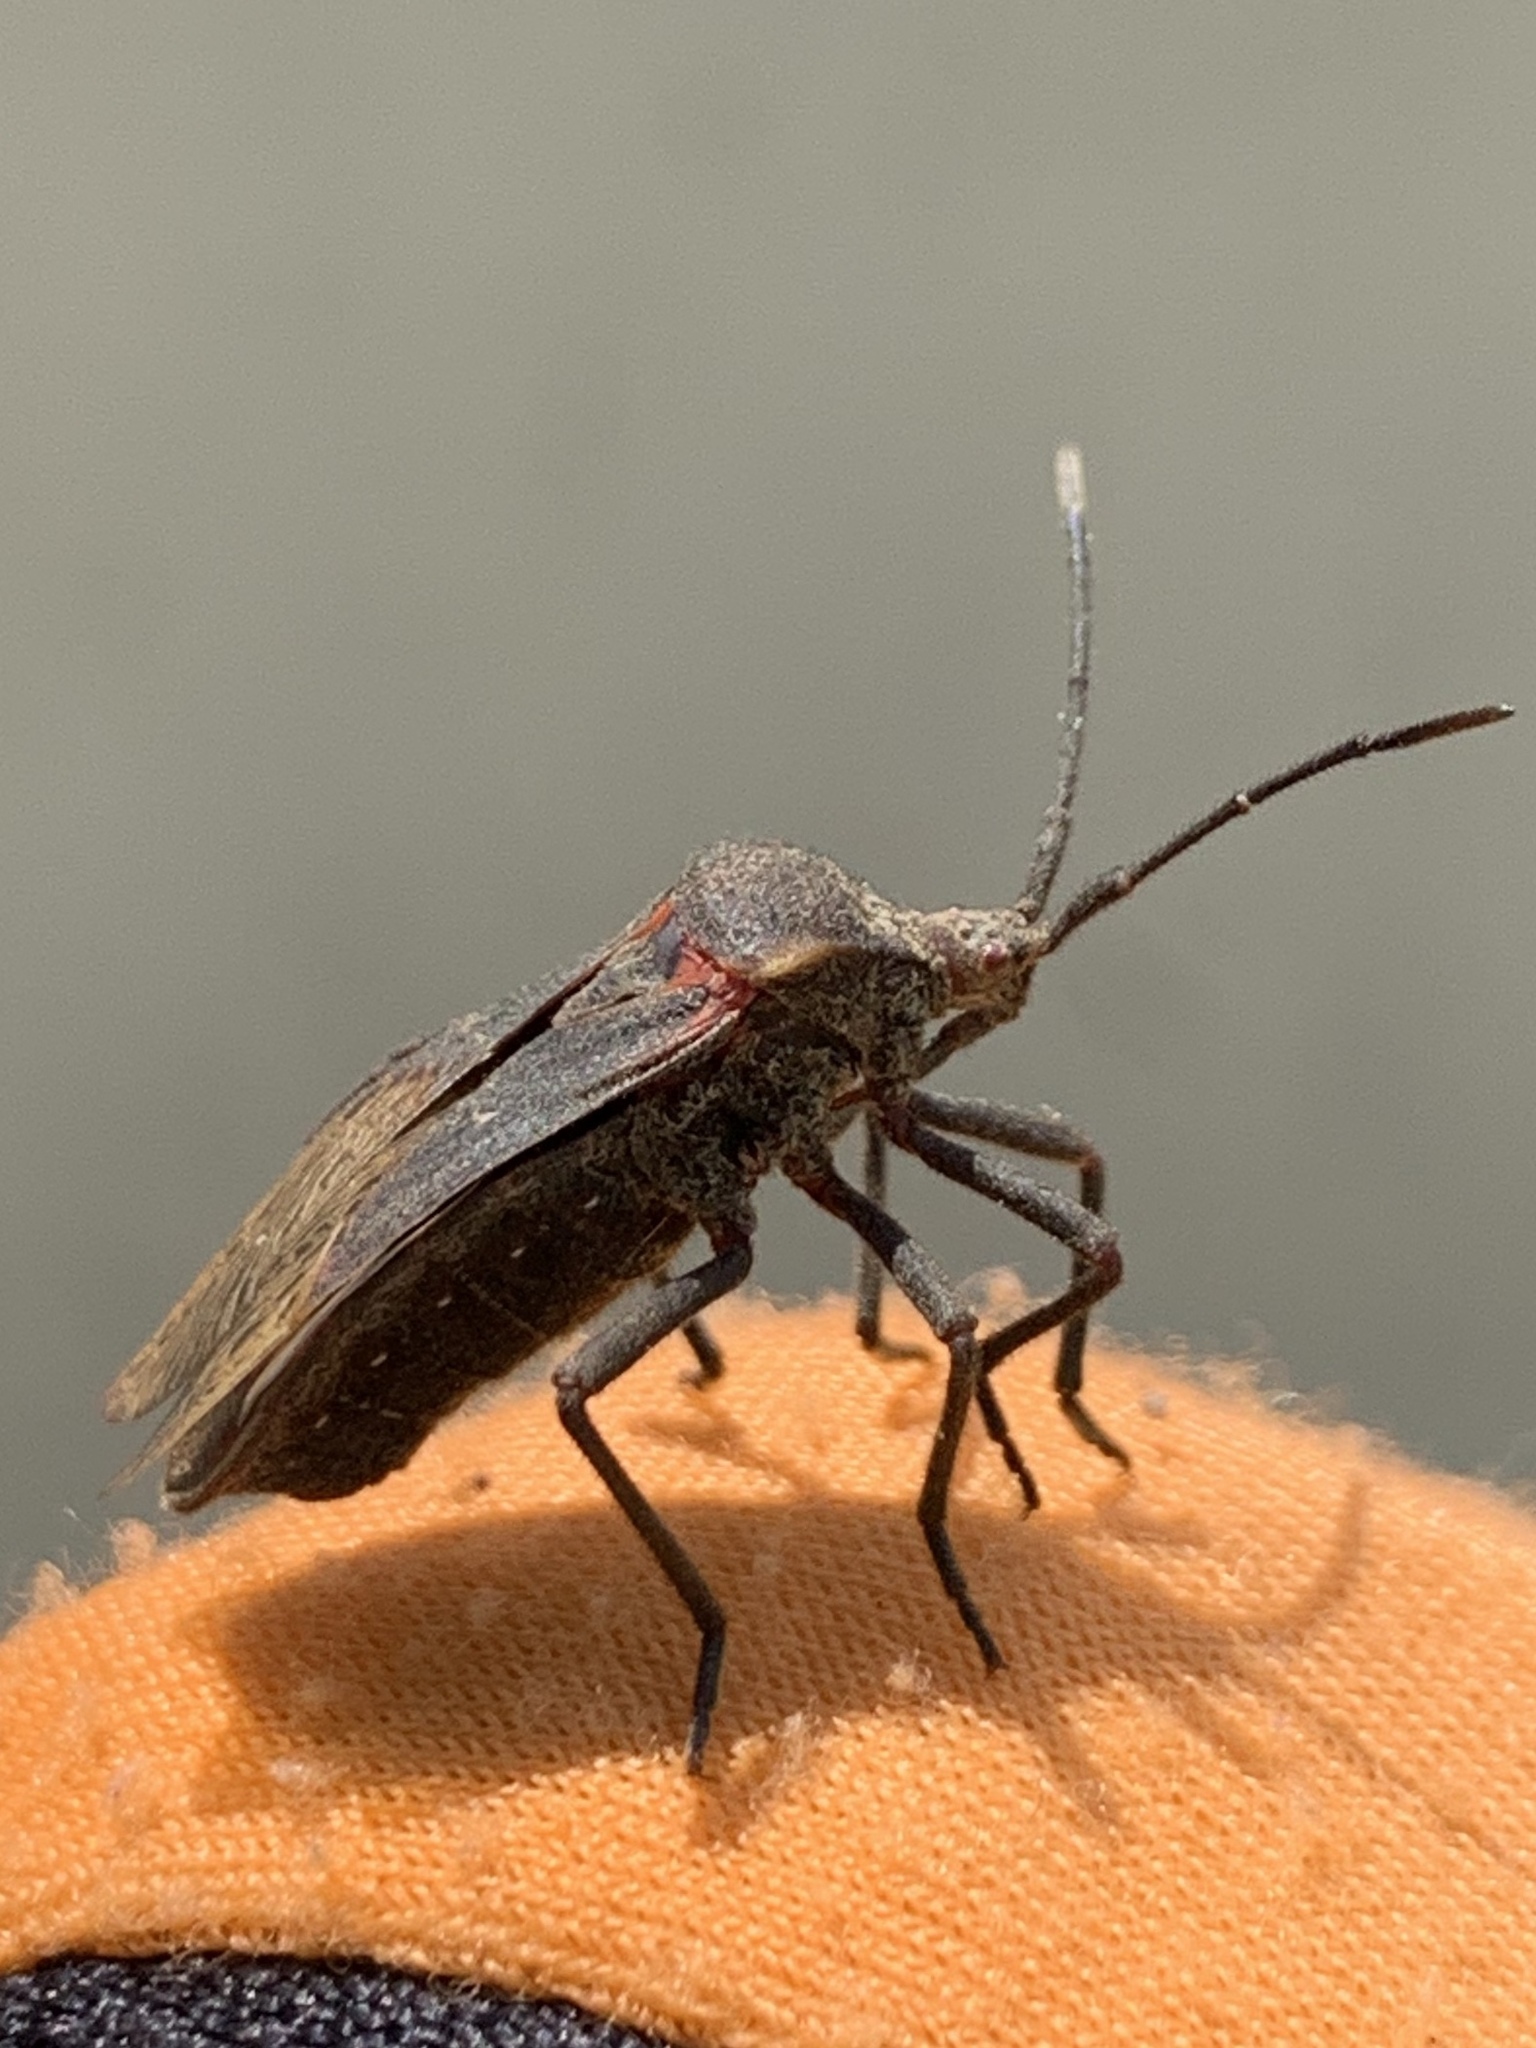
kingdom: Animalia
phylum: Arthropoda
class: Insecta
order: Hemiptera
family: Coreidae
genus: Spartocera
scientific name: Spartocera batatas
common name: Giant sweetpotato bug
